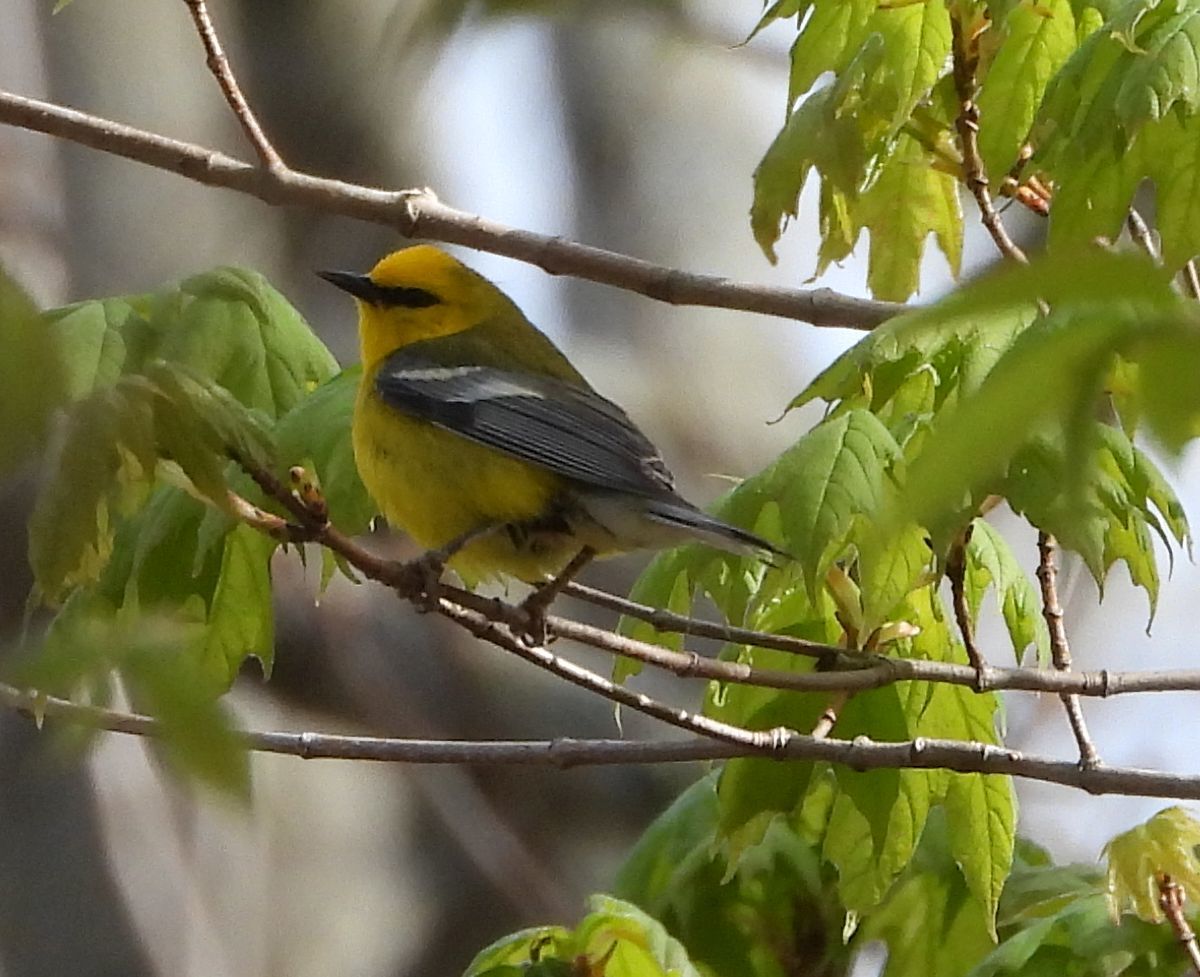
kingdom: Animalia
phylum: Chordata
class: Aves
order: Passeriformes
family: Parulidae
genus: Vermivora
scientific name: Vermivora cyanoptera
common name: Blue-winged warbler
